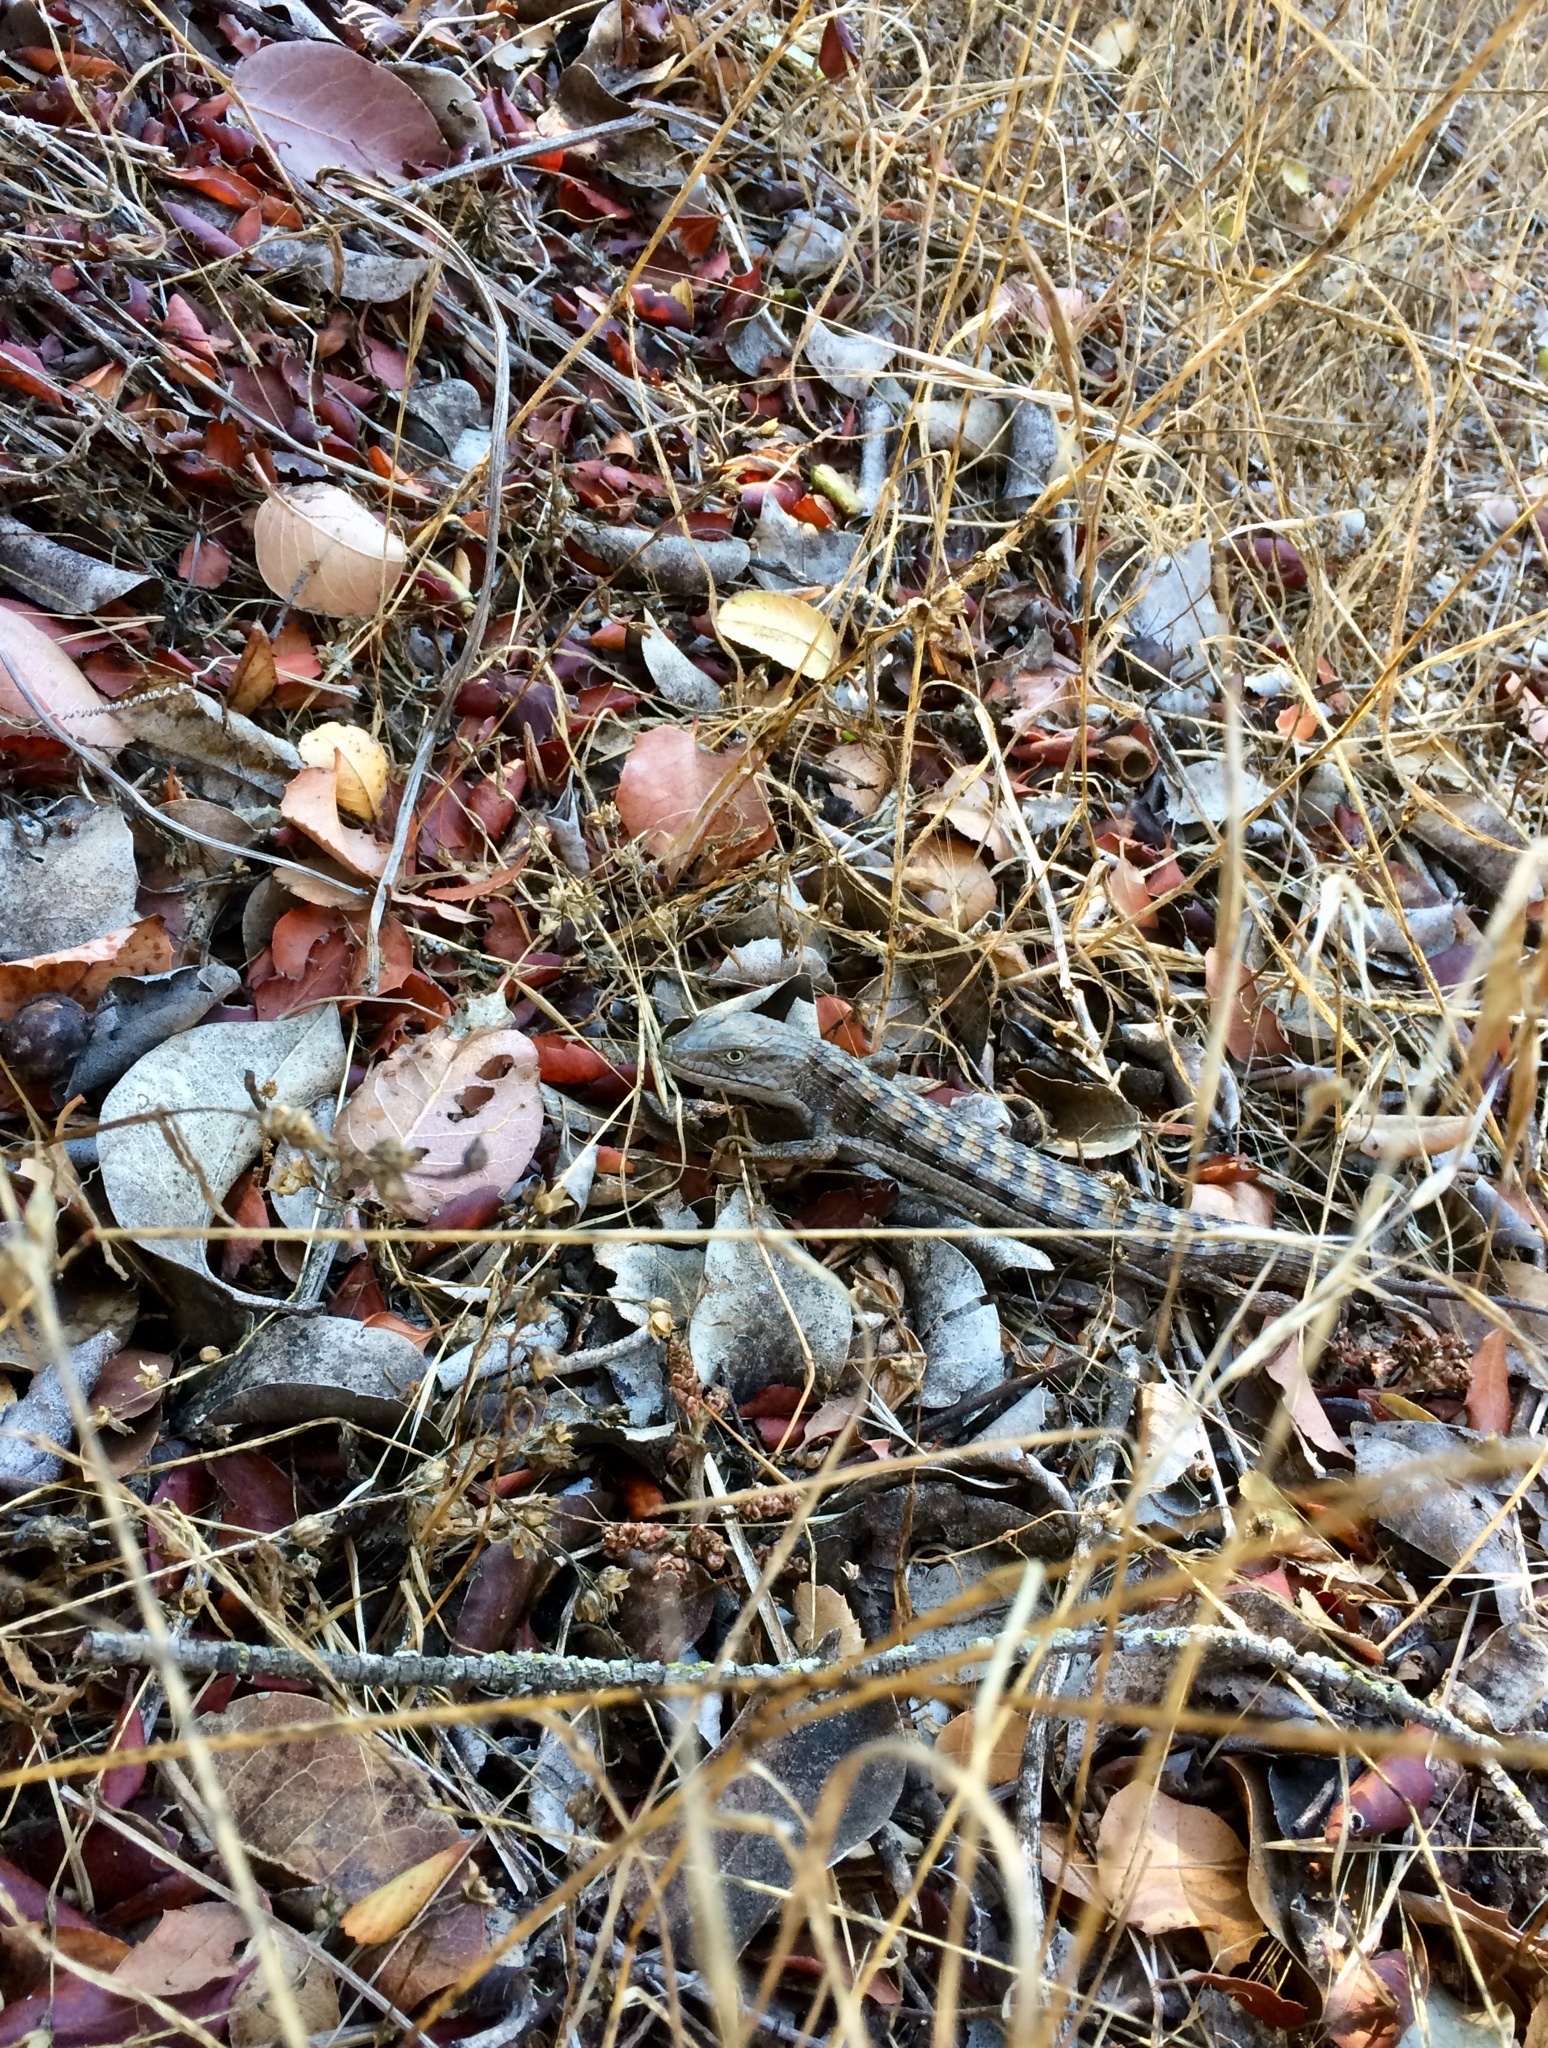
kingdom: Animalia
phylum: Chordata
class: Squamata
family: Anguidae
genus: Elgaria
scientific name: Elgaria multicarinata
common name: Southern alligator lizard
